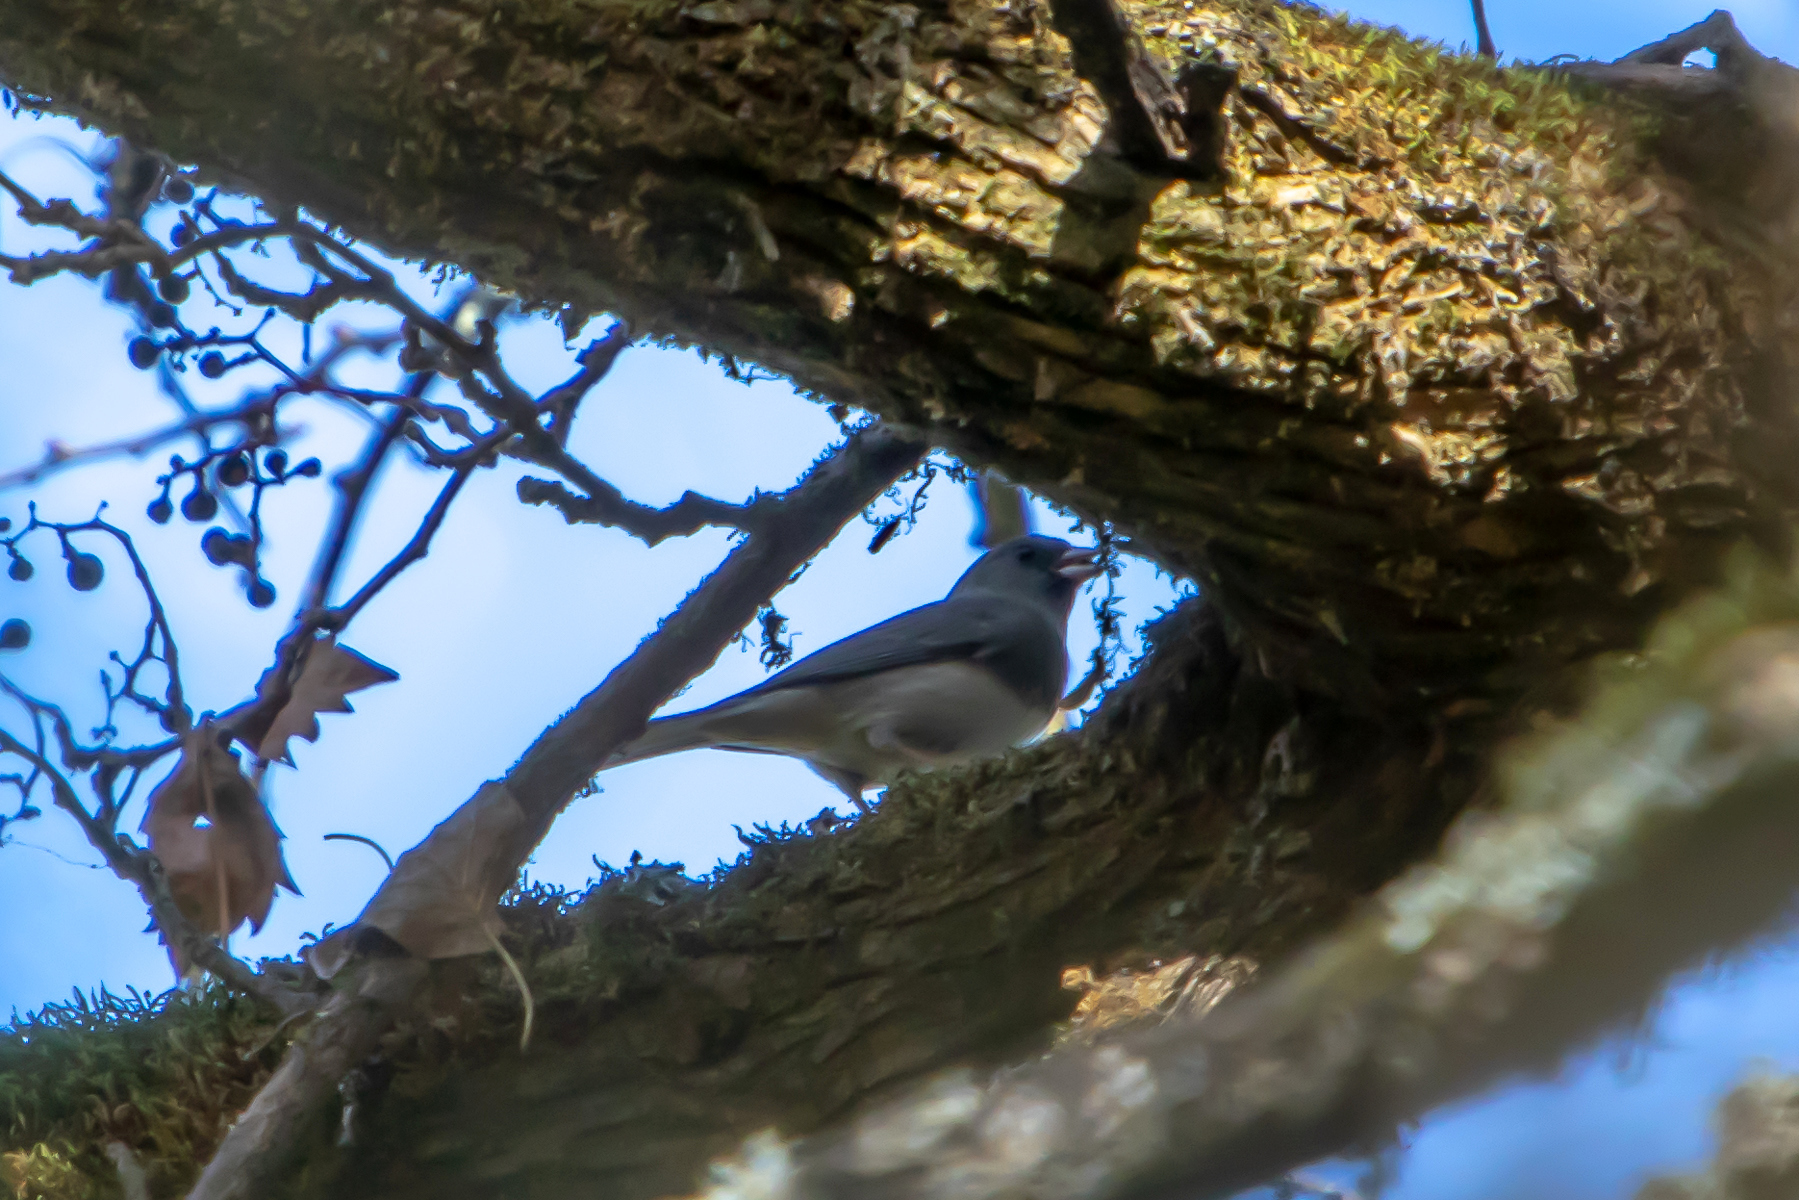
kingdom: Animalia
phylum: Chordata
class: Aves
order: Passeriformes
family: Passerellidae
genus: Junco
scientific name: Junco hyemalis
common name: Dark-eyed junco
